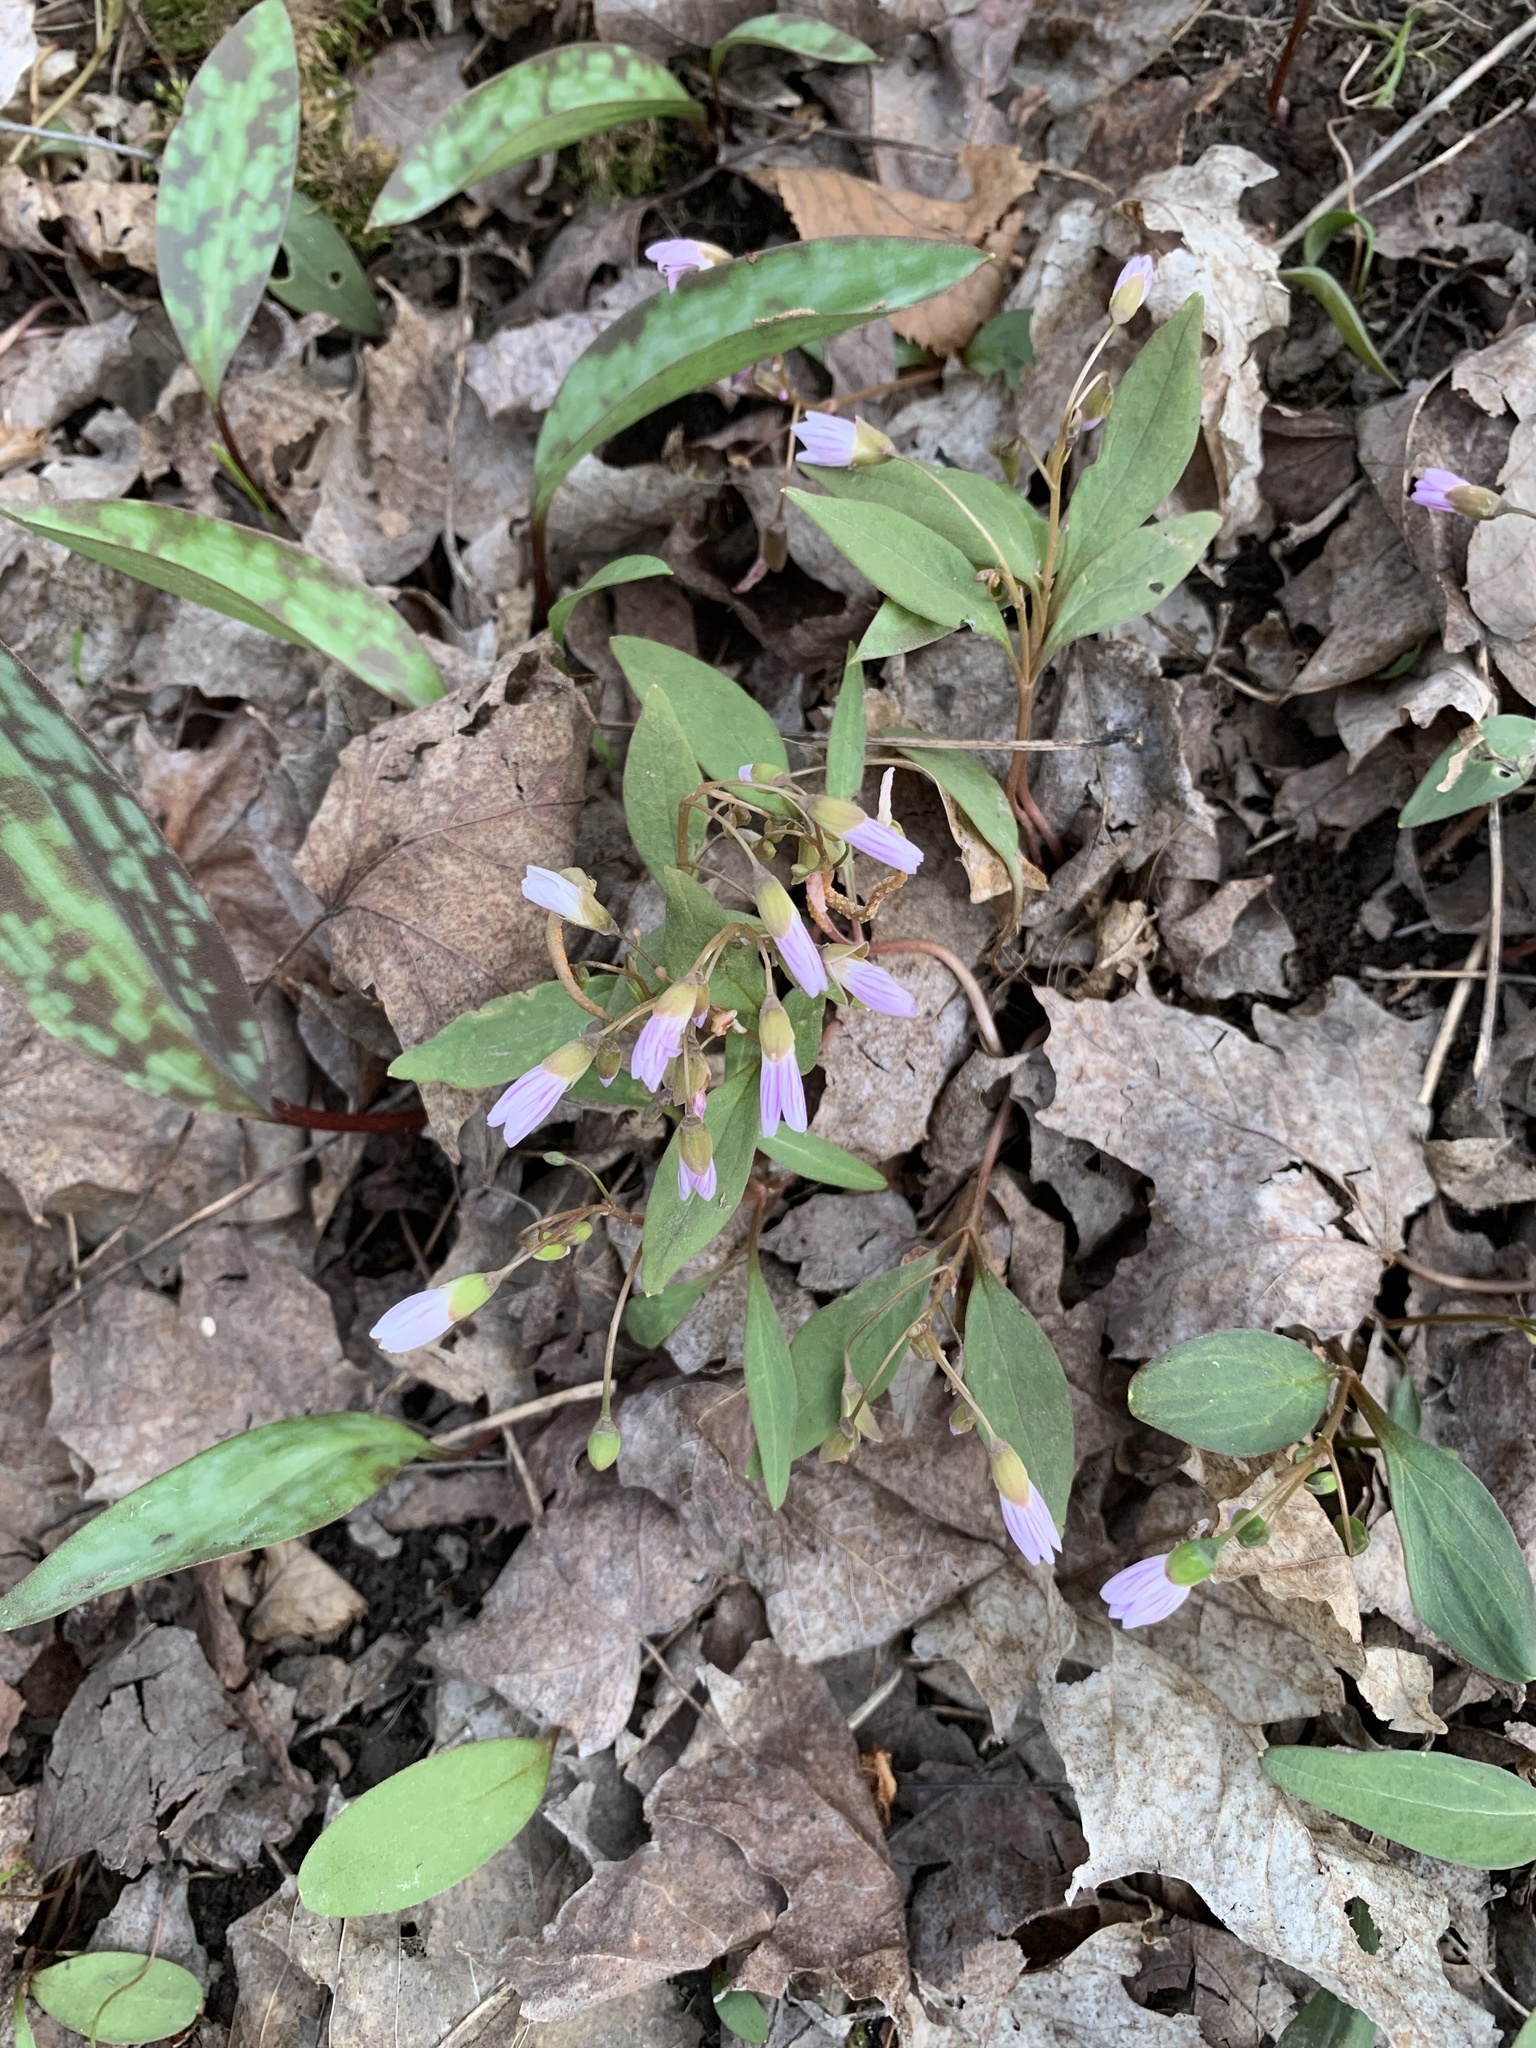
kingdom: Plantae
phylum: Tracheophyta
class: Magnoliopsida
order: Caryophyllales
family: Montiaceae
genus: Claytonia
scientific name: Claytonia caroliniana
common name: Carolina spring beauty
